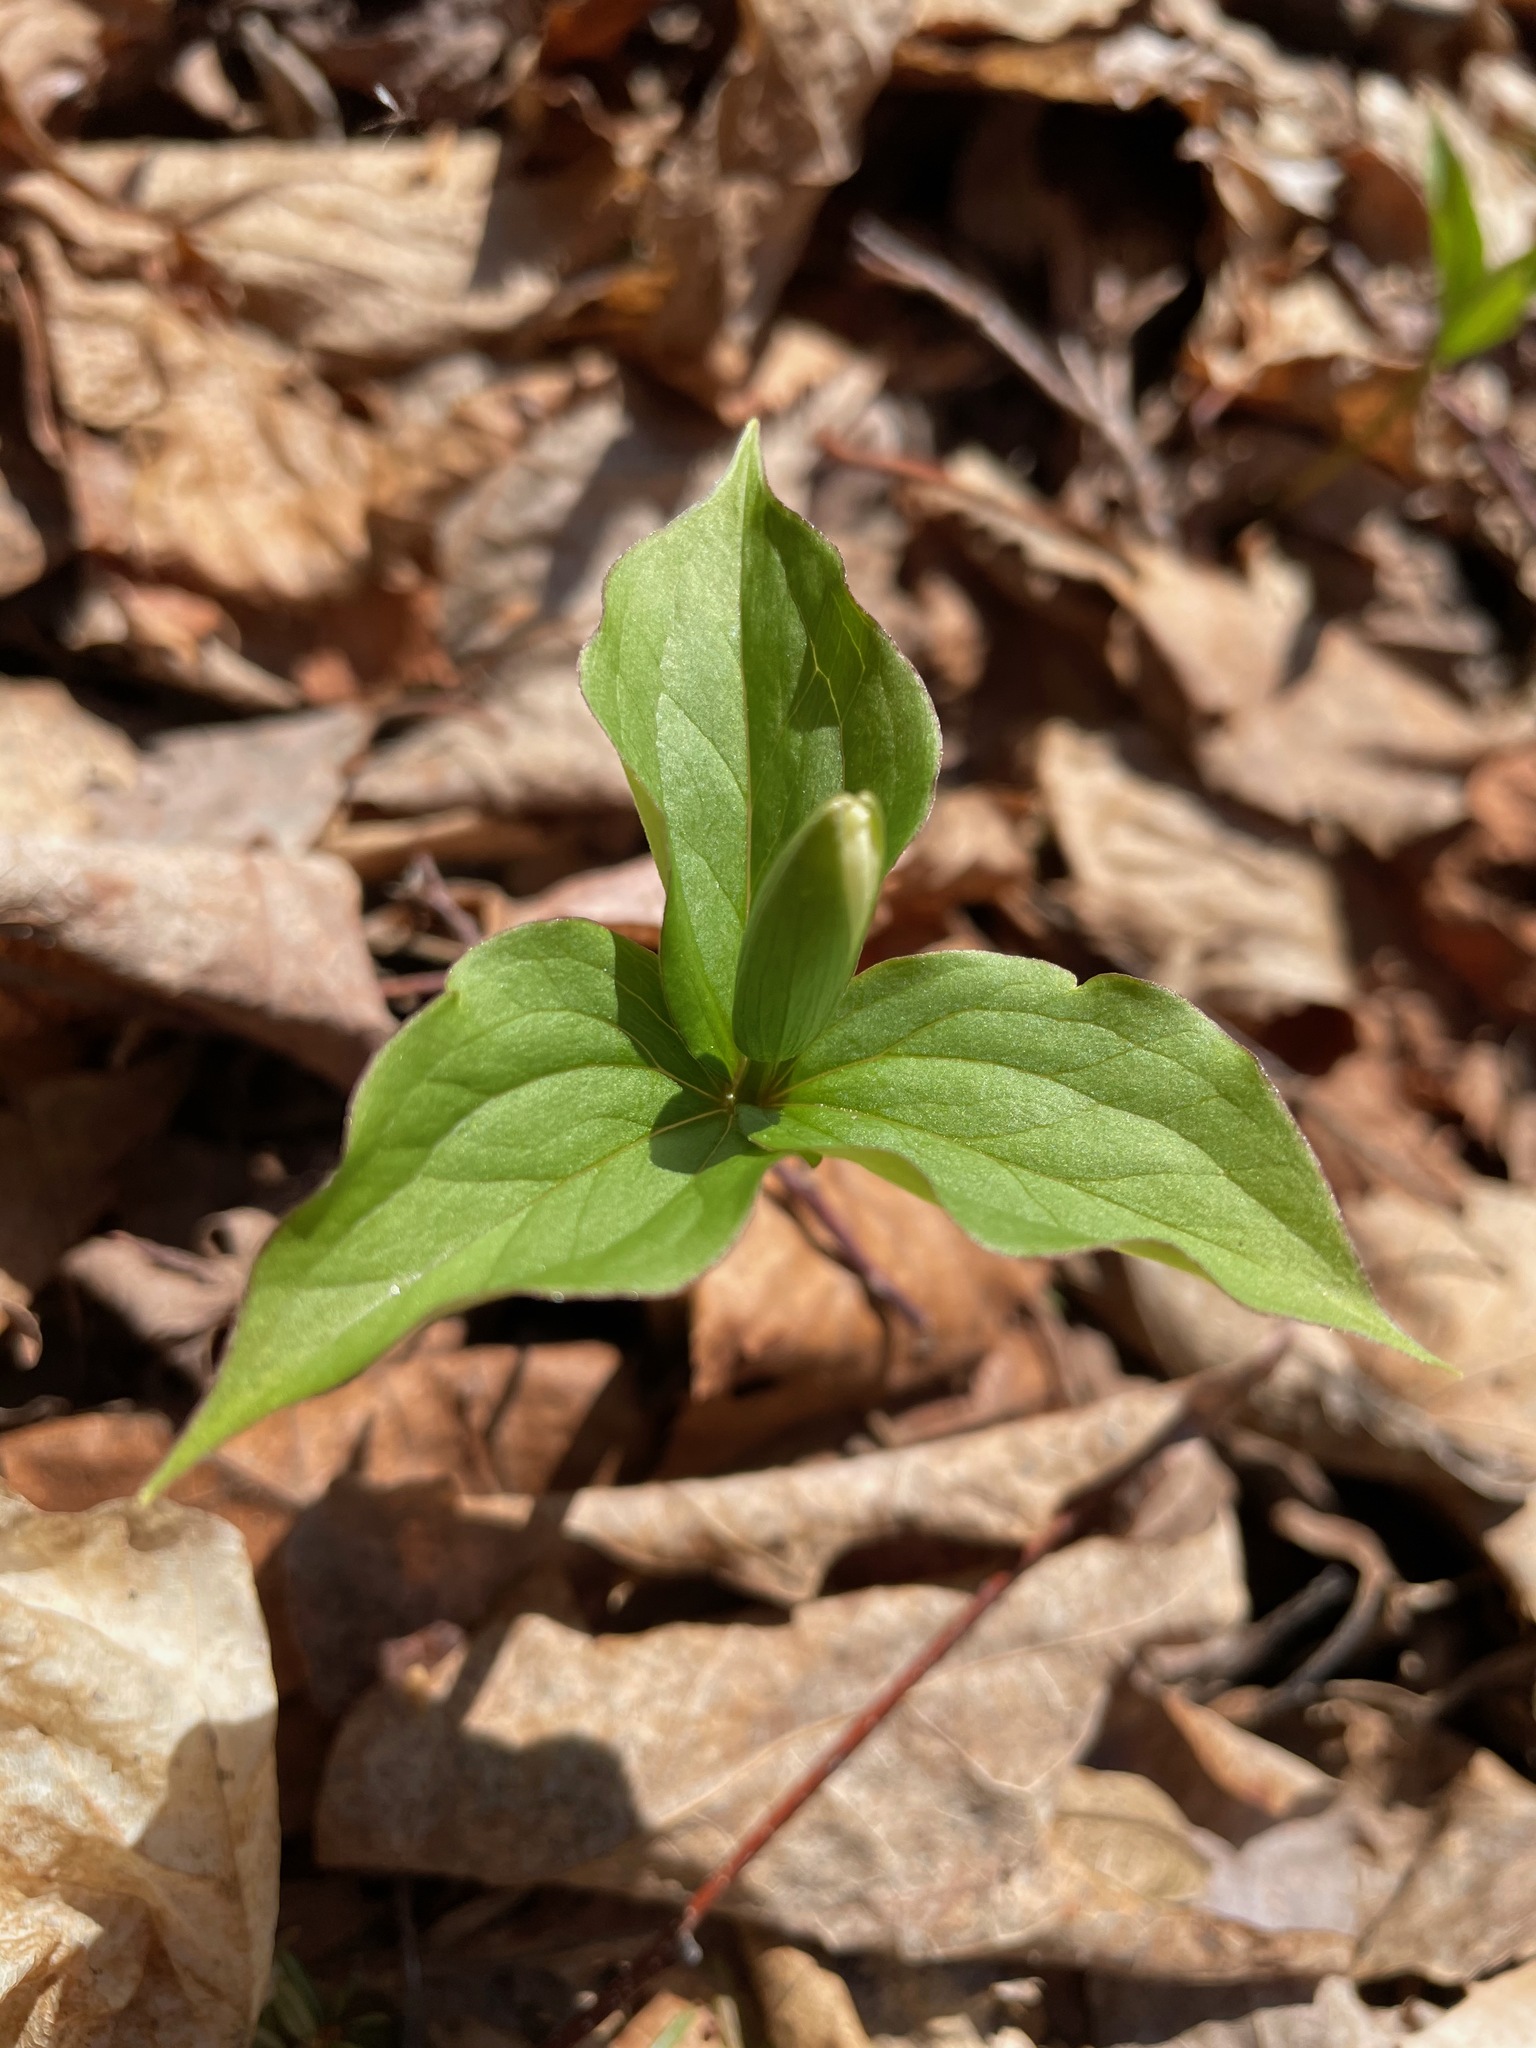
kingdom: Plantae
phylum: Tracheophyta
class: Liliopsida
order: Liliales
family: Melanthiaceae
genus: Trillium
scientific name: Trillium grandiflorum
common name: Great white trillium
